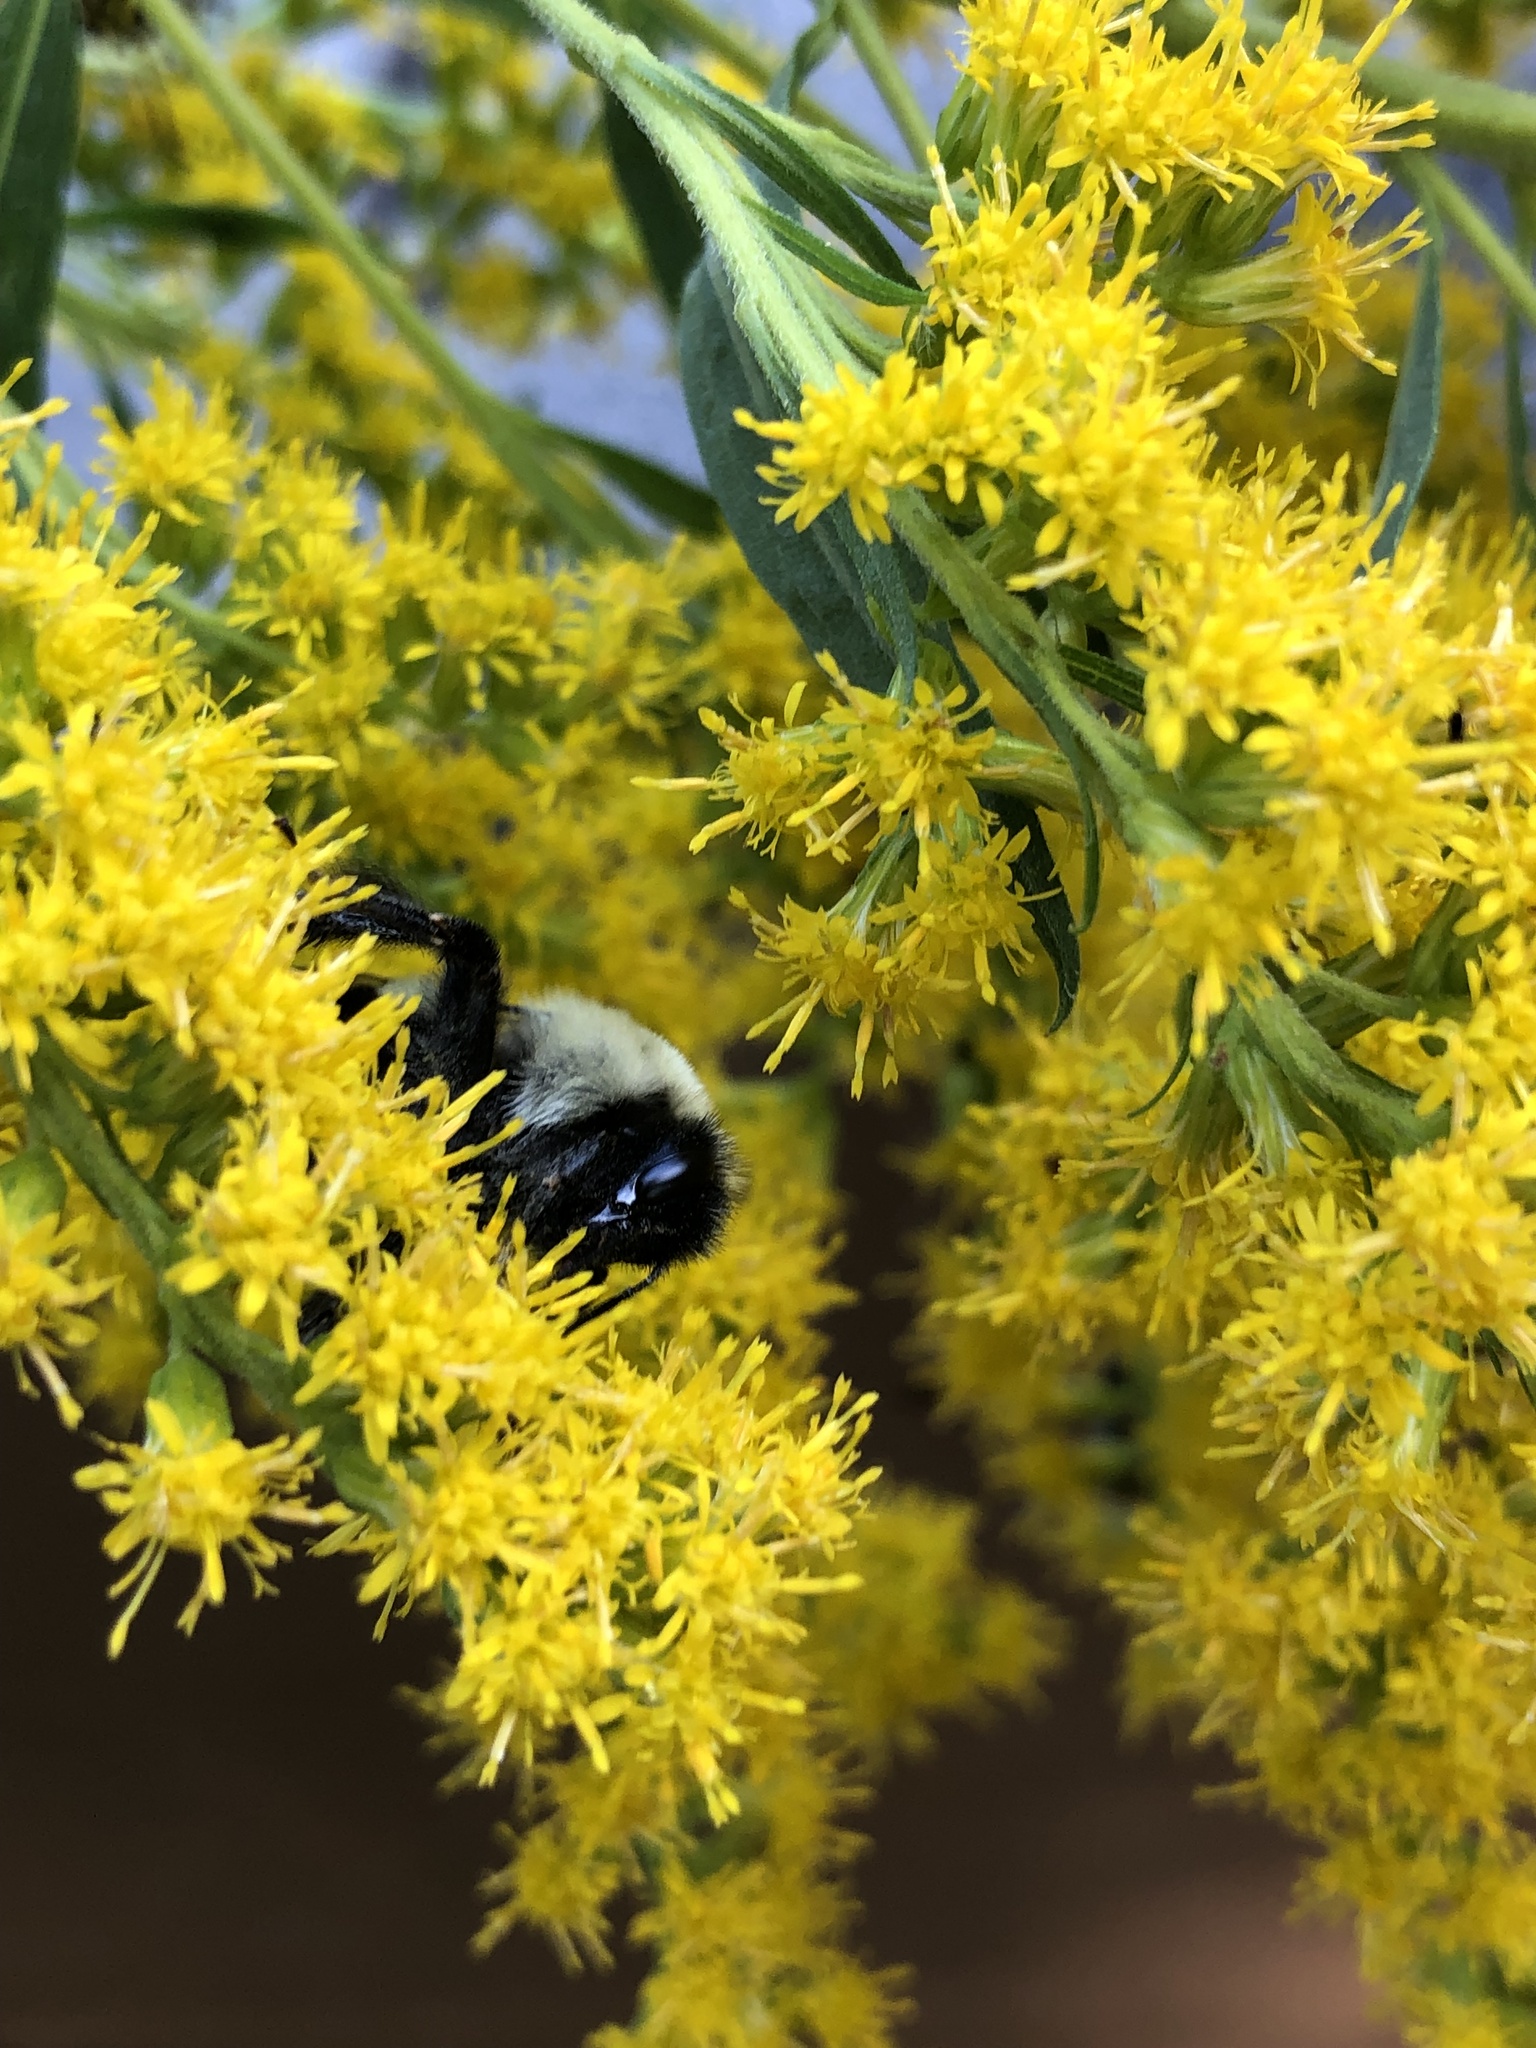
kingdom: Animalia
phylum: Arthropoda
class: Insecta
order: Hymenoptera
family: Apidae
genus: Bombus
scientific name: Bombus impatiens
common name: Common eastern bumble bee
